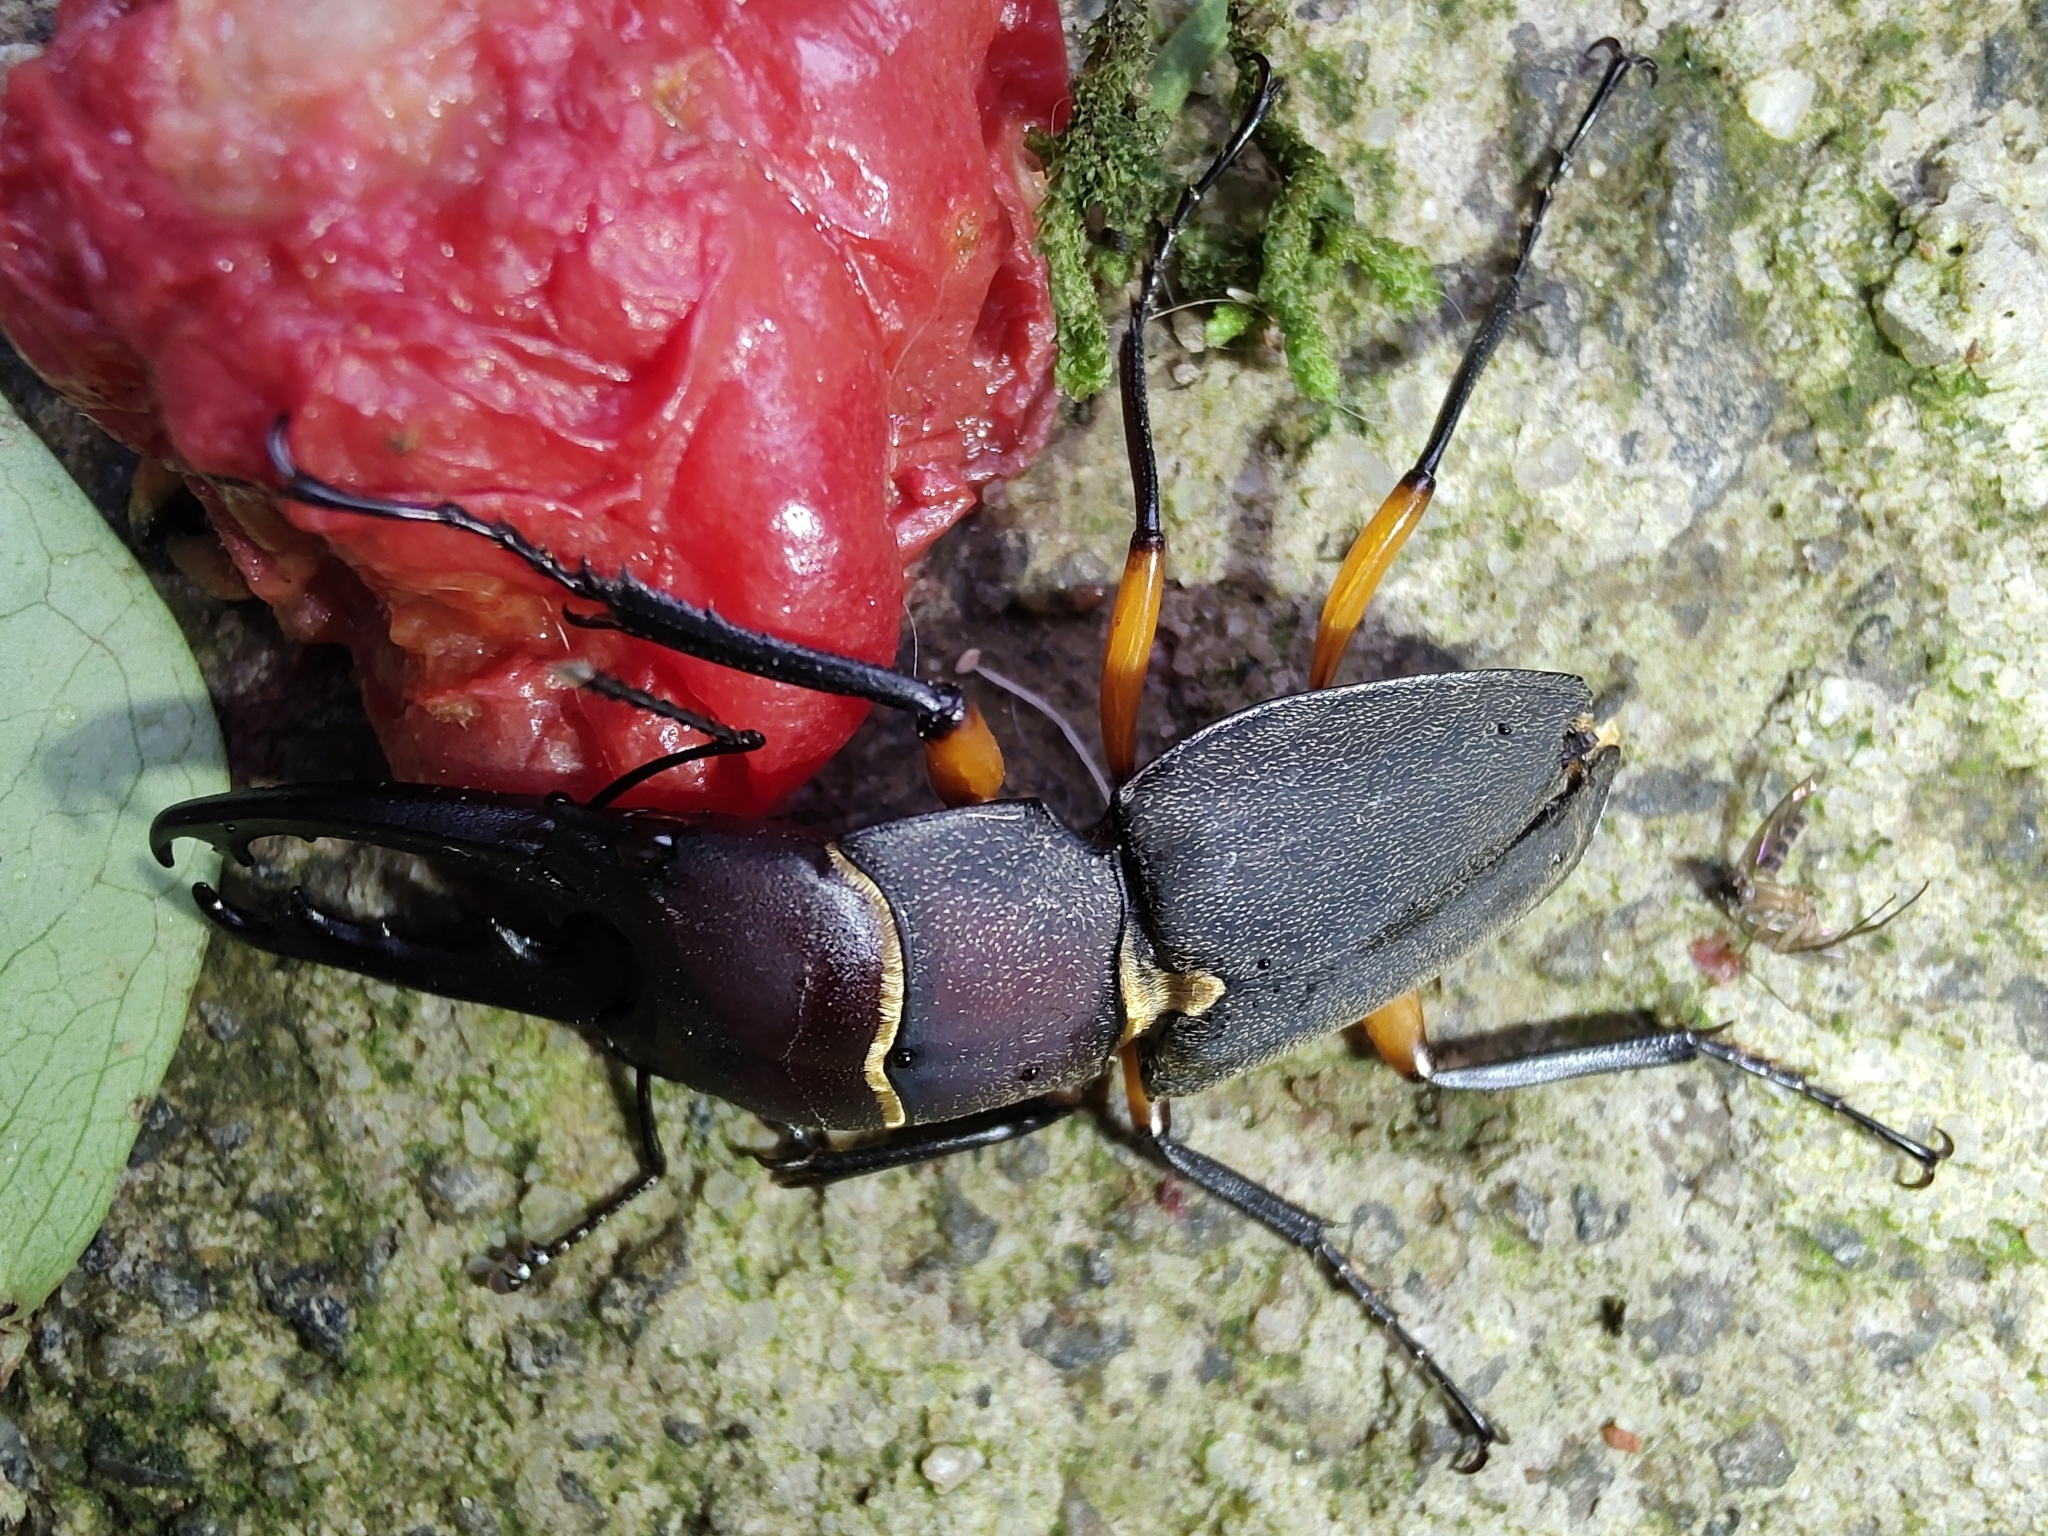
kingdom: Animalia
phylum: Arthropoda
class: Insecta
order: Coleoptera
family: Lucanidae
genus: Leptinopterus
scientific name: Leptinopterus femoratus
